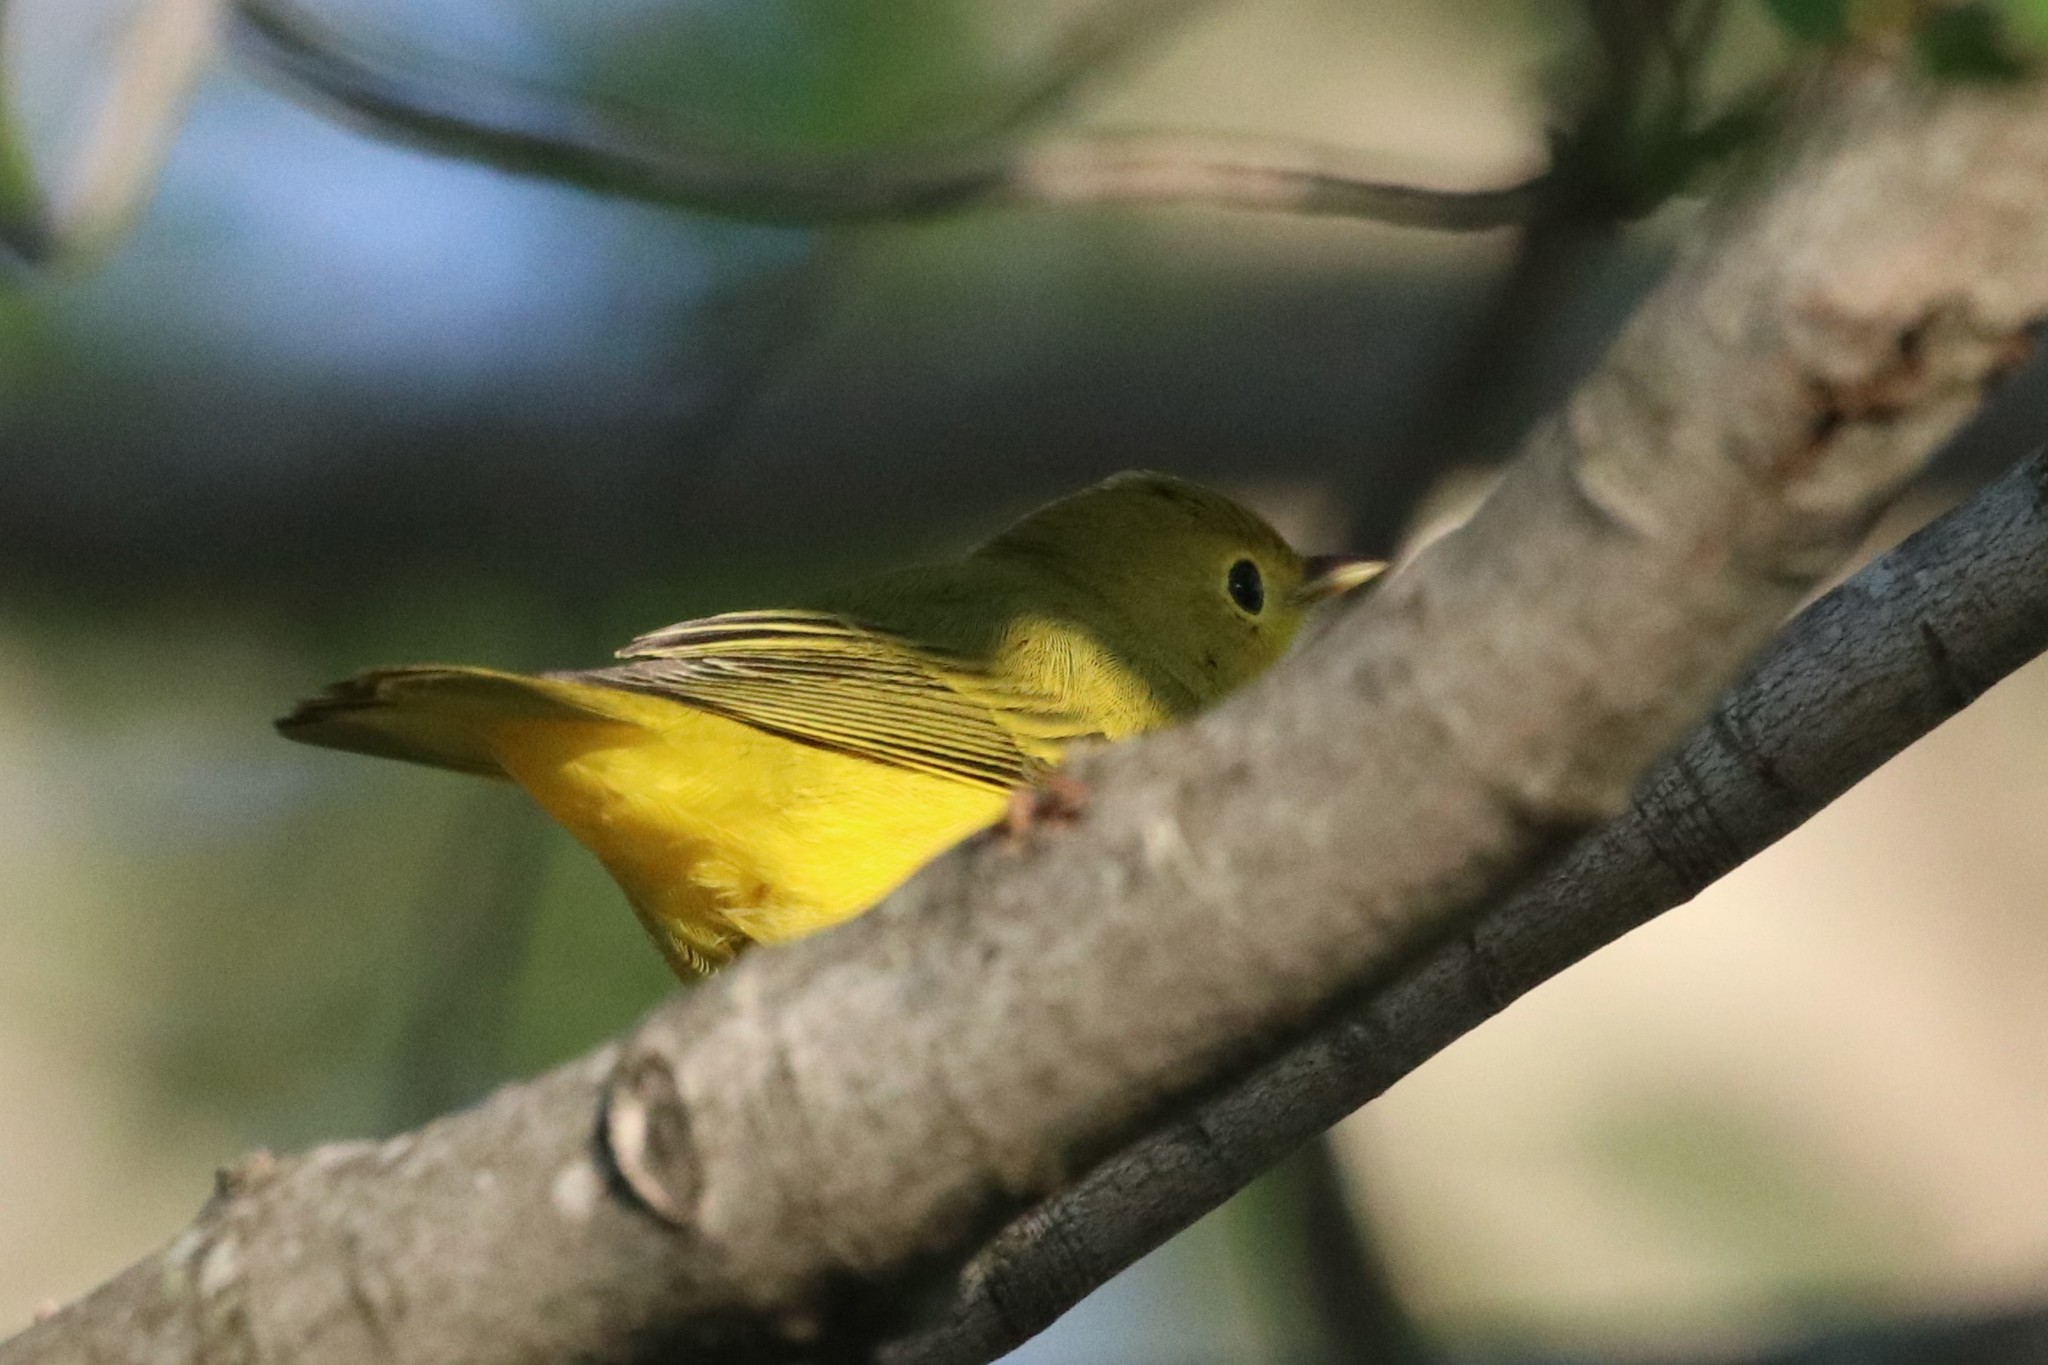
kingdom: Animalia
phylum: Chordata
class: Aves
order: Passeriformes
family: Parulidae
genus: Setophaga
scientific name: Setophaga petechia
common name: Yellow warbler
